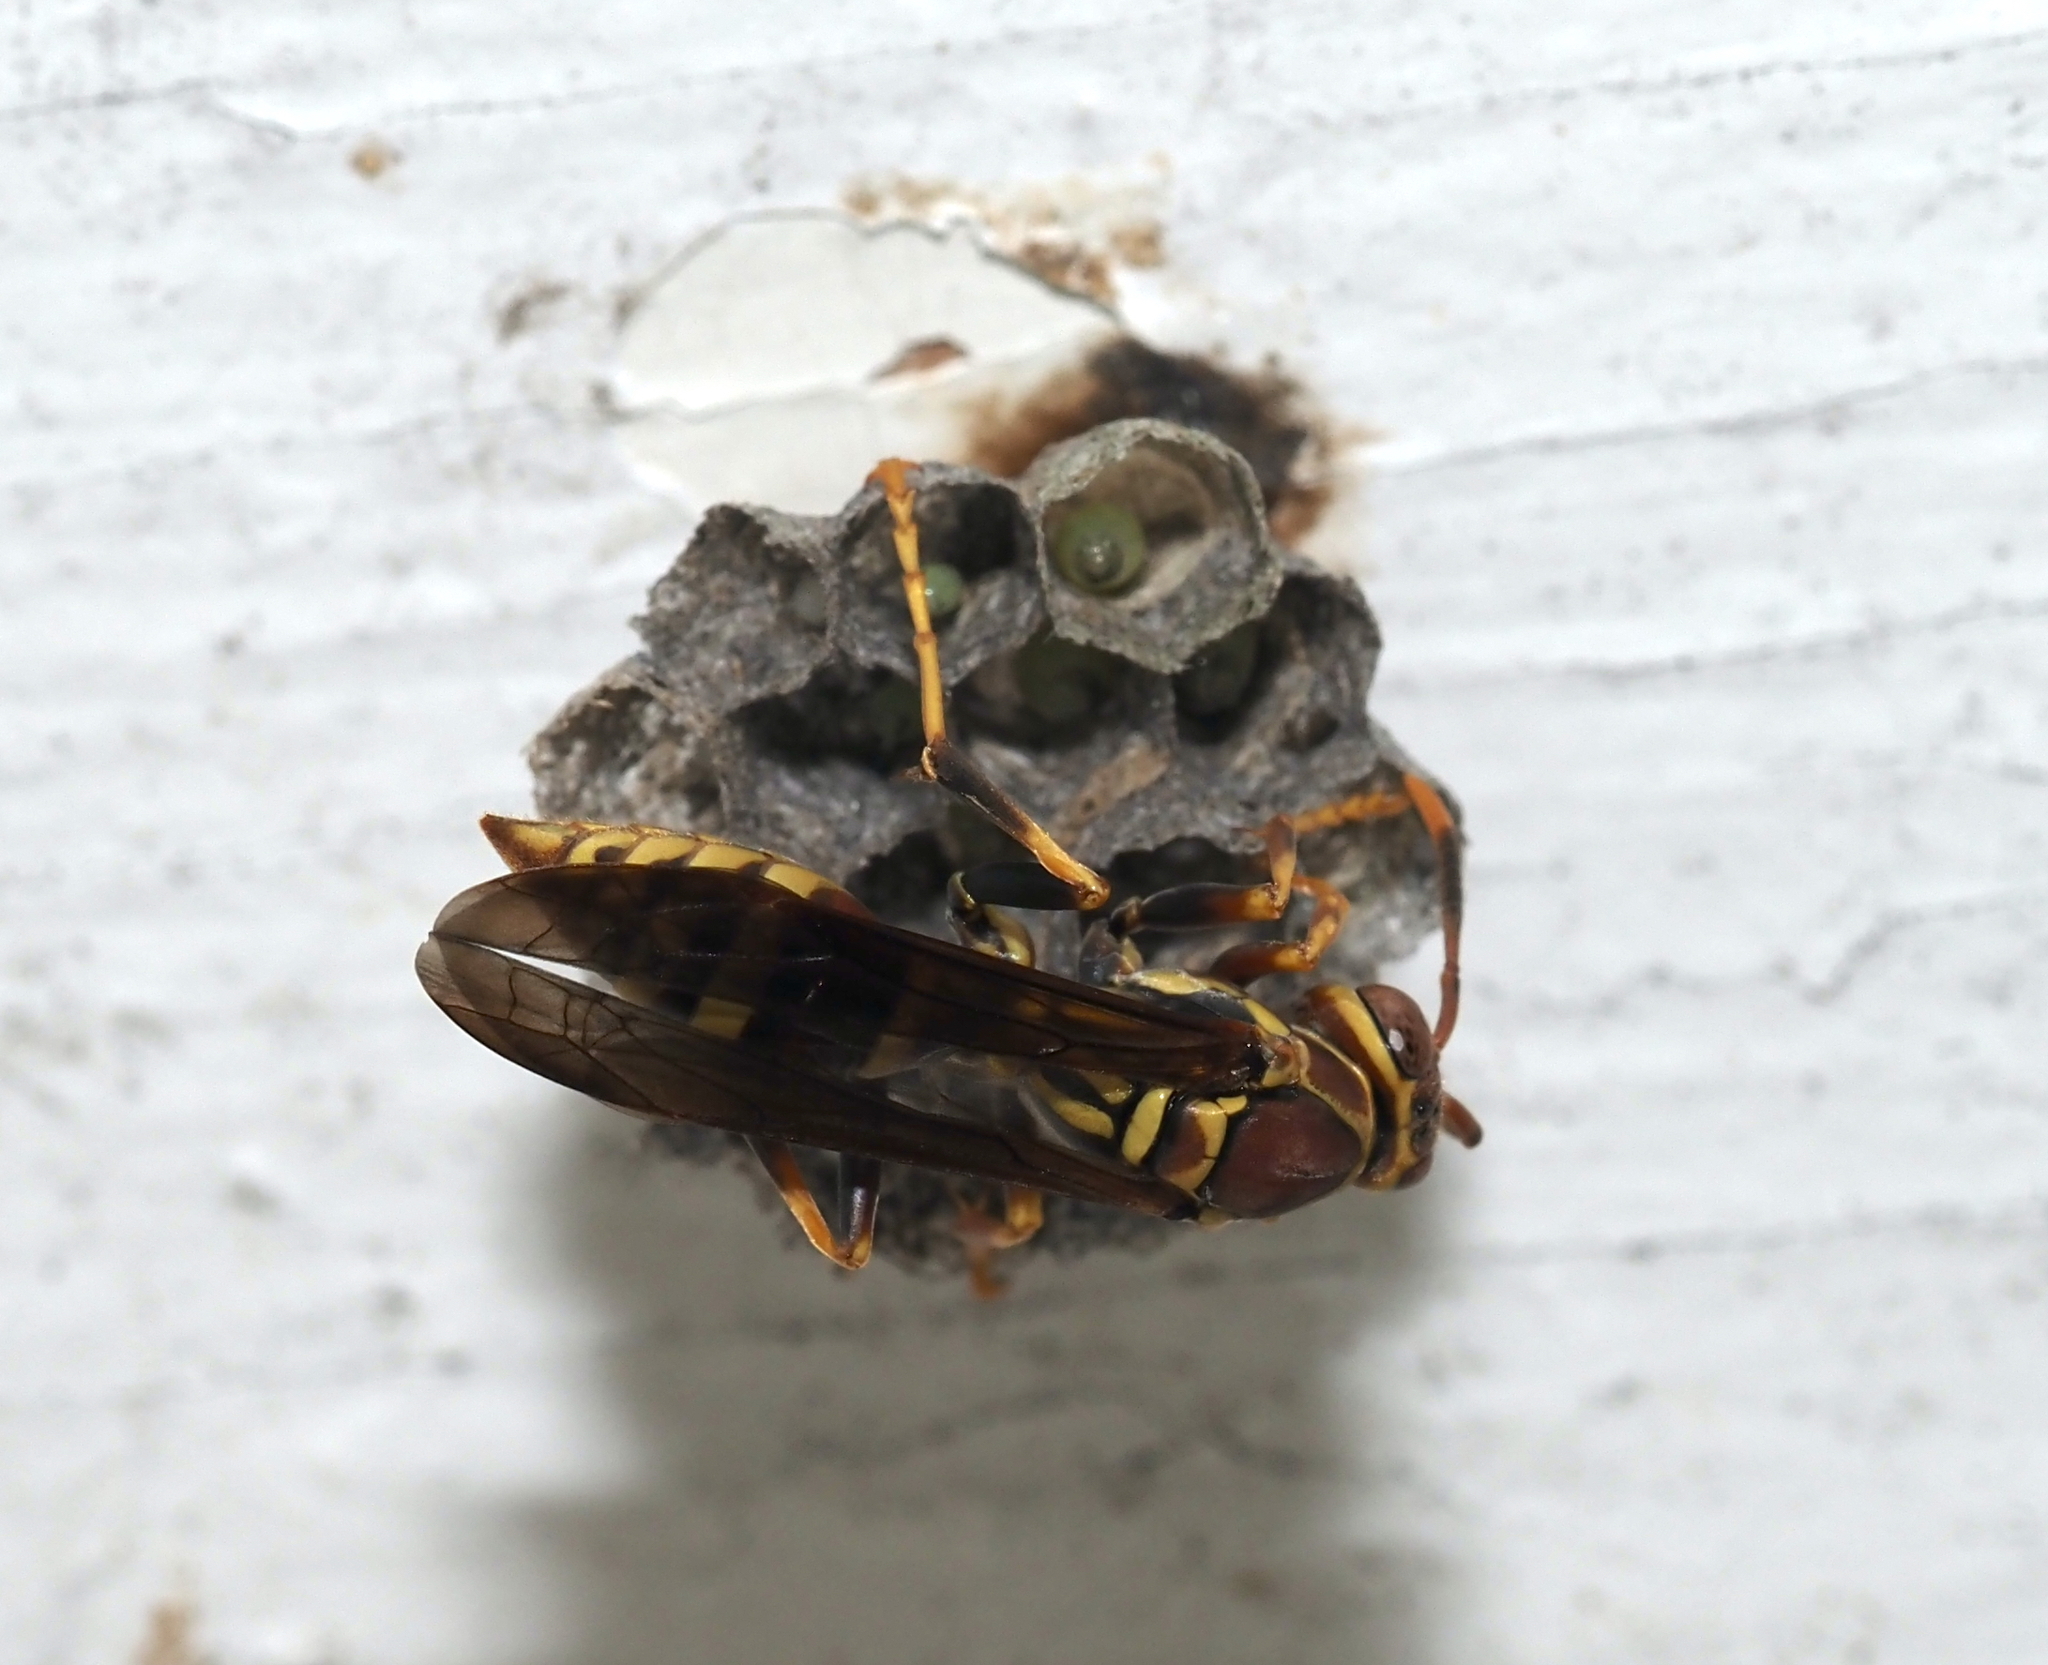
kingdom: Animalia
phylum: Arthropoda
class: Insecta
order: Hymenoptera
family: Eumenidae
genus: Polistes
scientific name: Polistes exclamans
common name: Paper wasp
